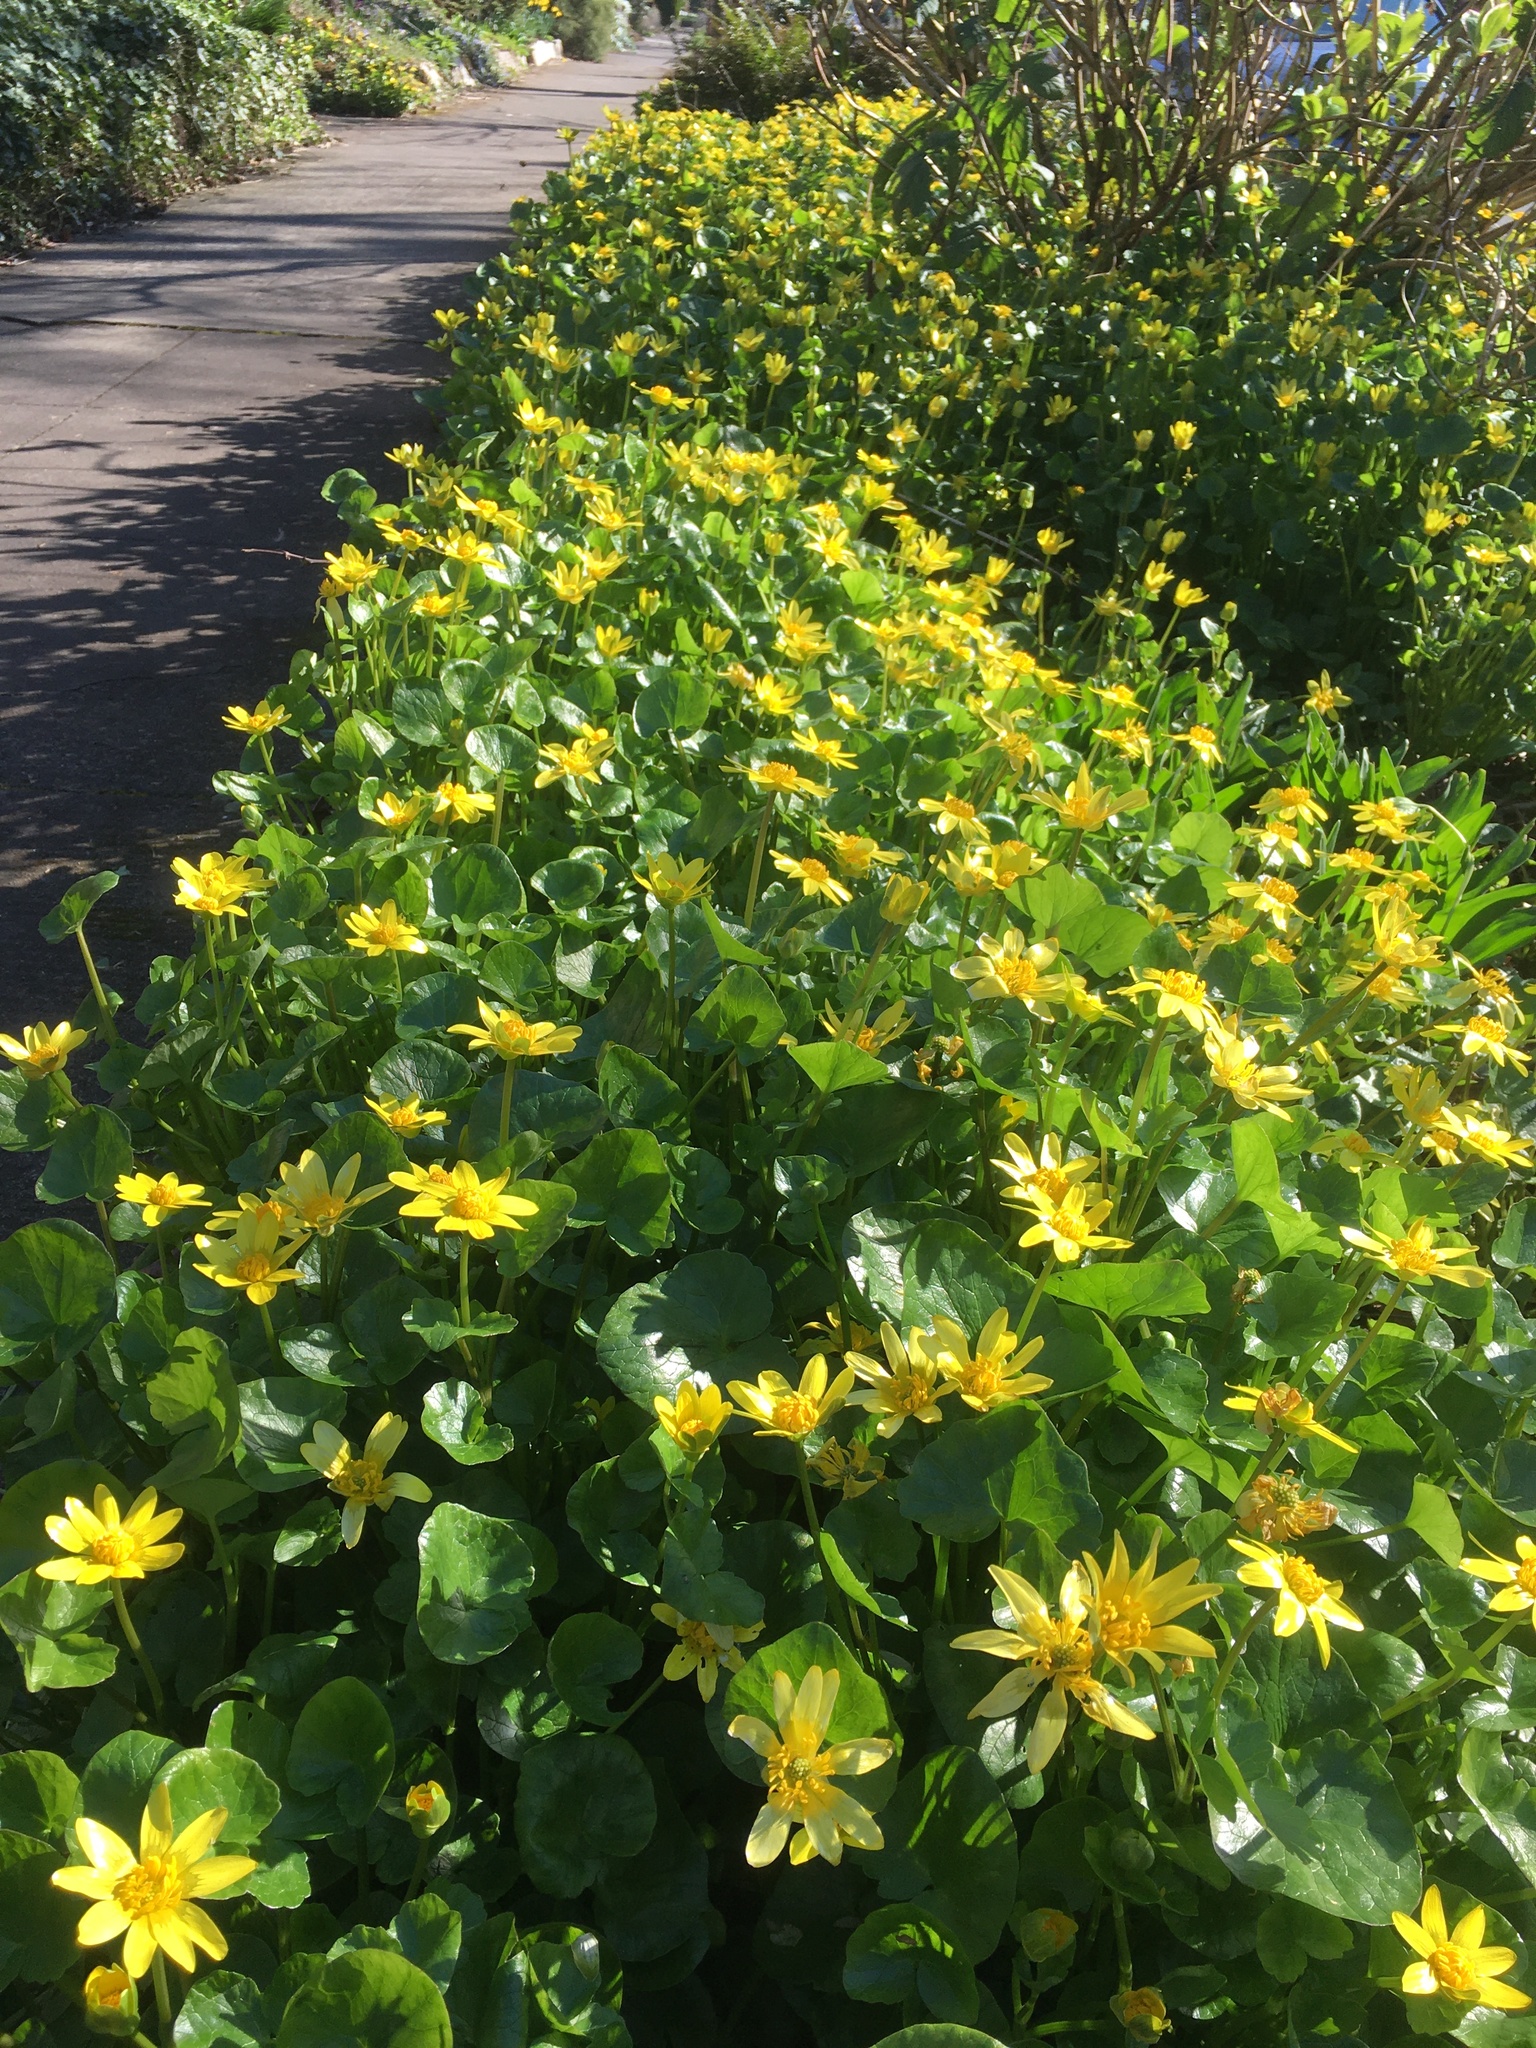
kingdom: Plantae
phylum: Tracheophyta
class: Magnoliopsida
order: Ranunculales
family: Ranunculaceae
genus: Ficaria
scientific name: Ficaria verna
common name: Lesser celandine
